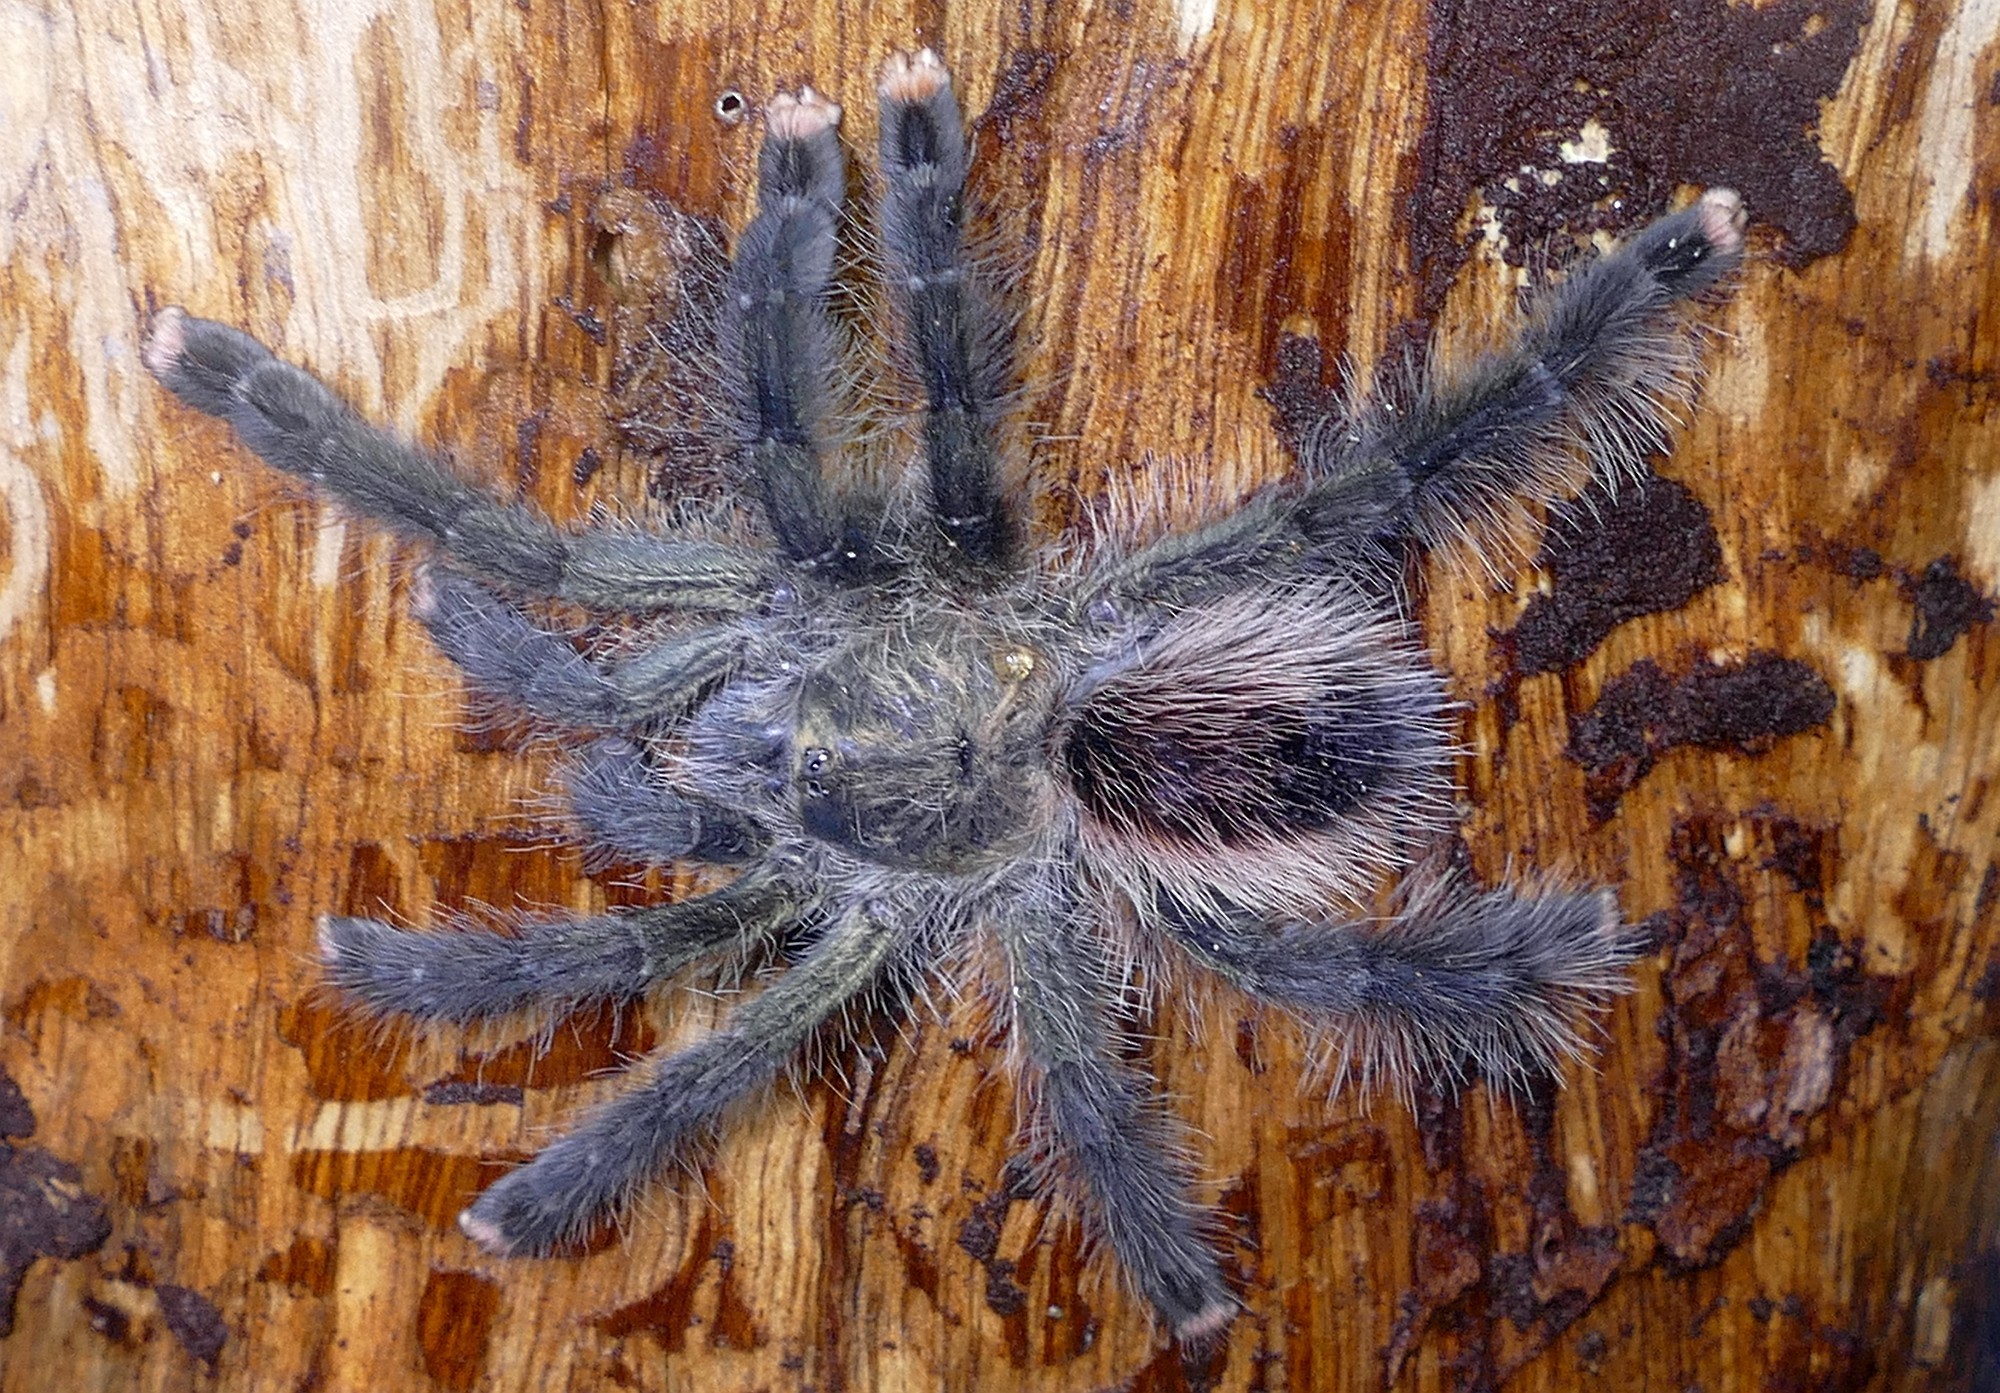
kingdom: Animalia
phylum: Arthropoda
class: Arachnida
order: Araneae
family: Theraphosidae
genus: Avicularia
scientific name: Avicularia juruensis
